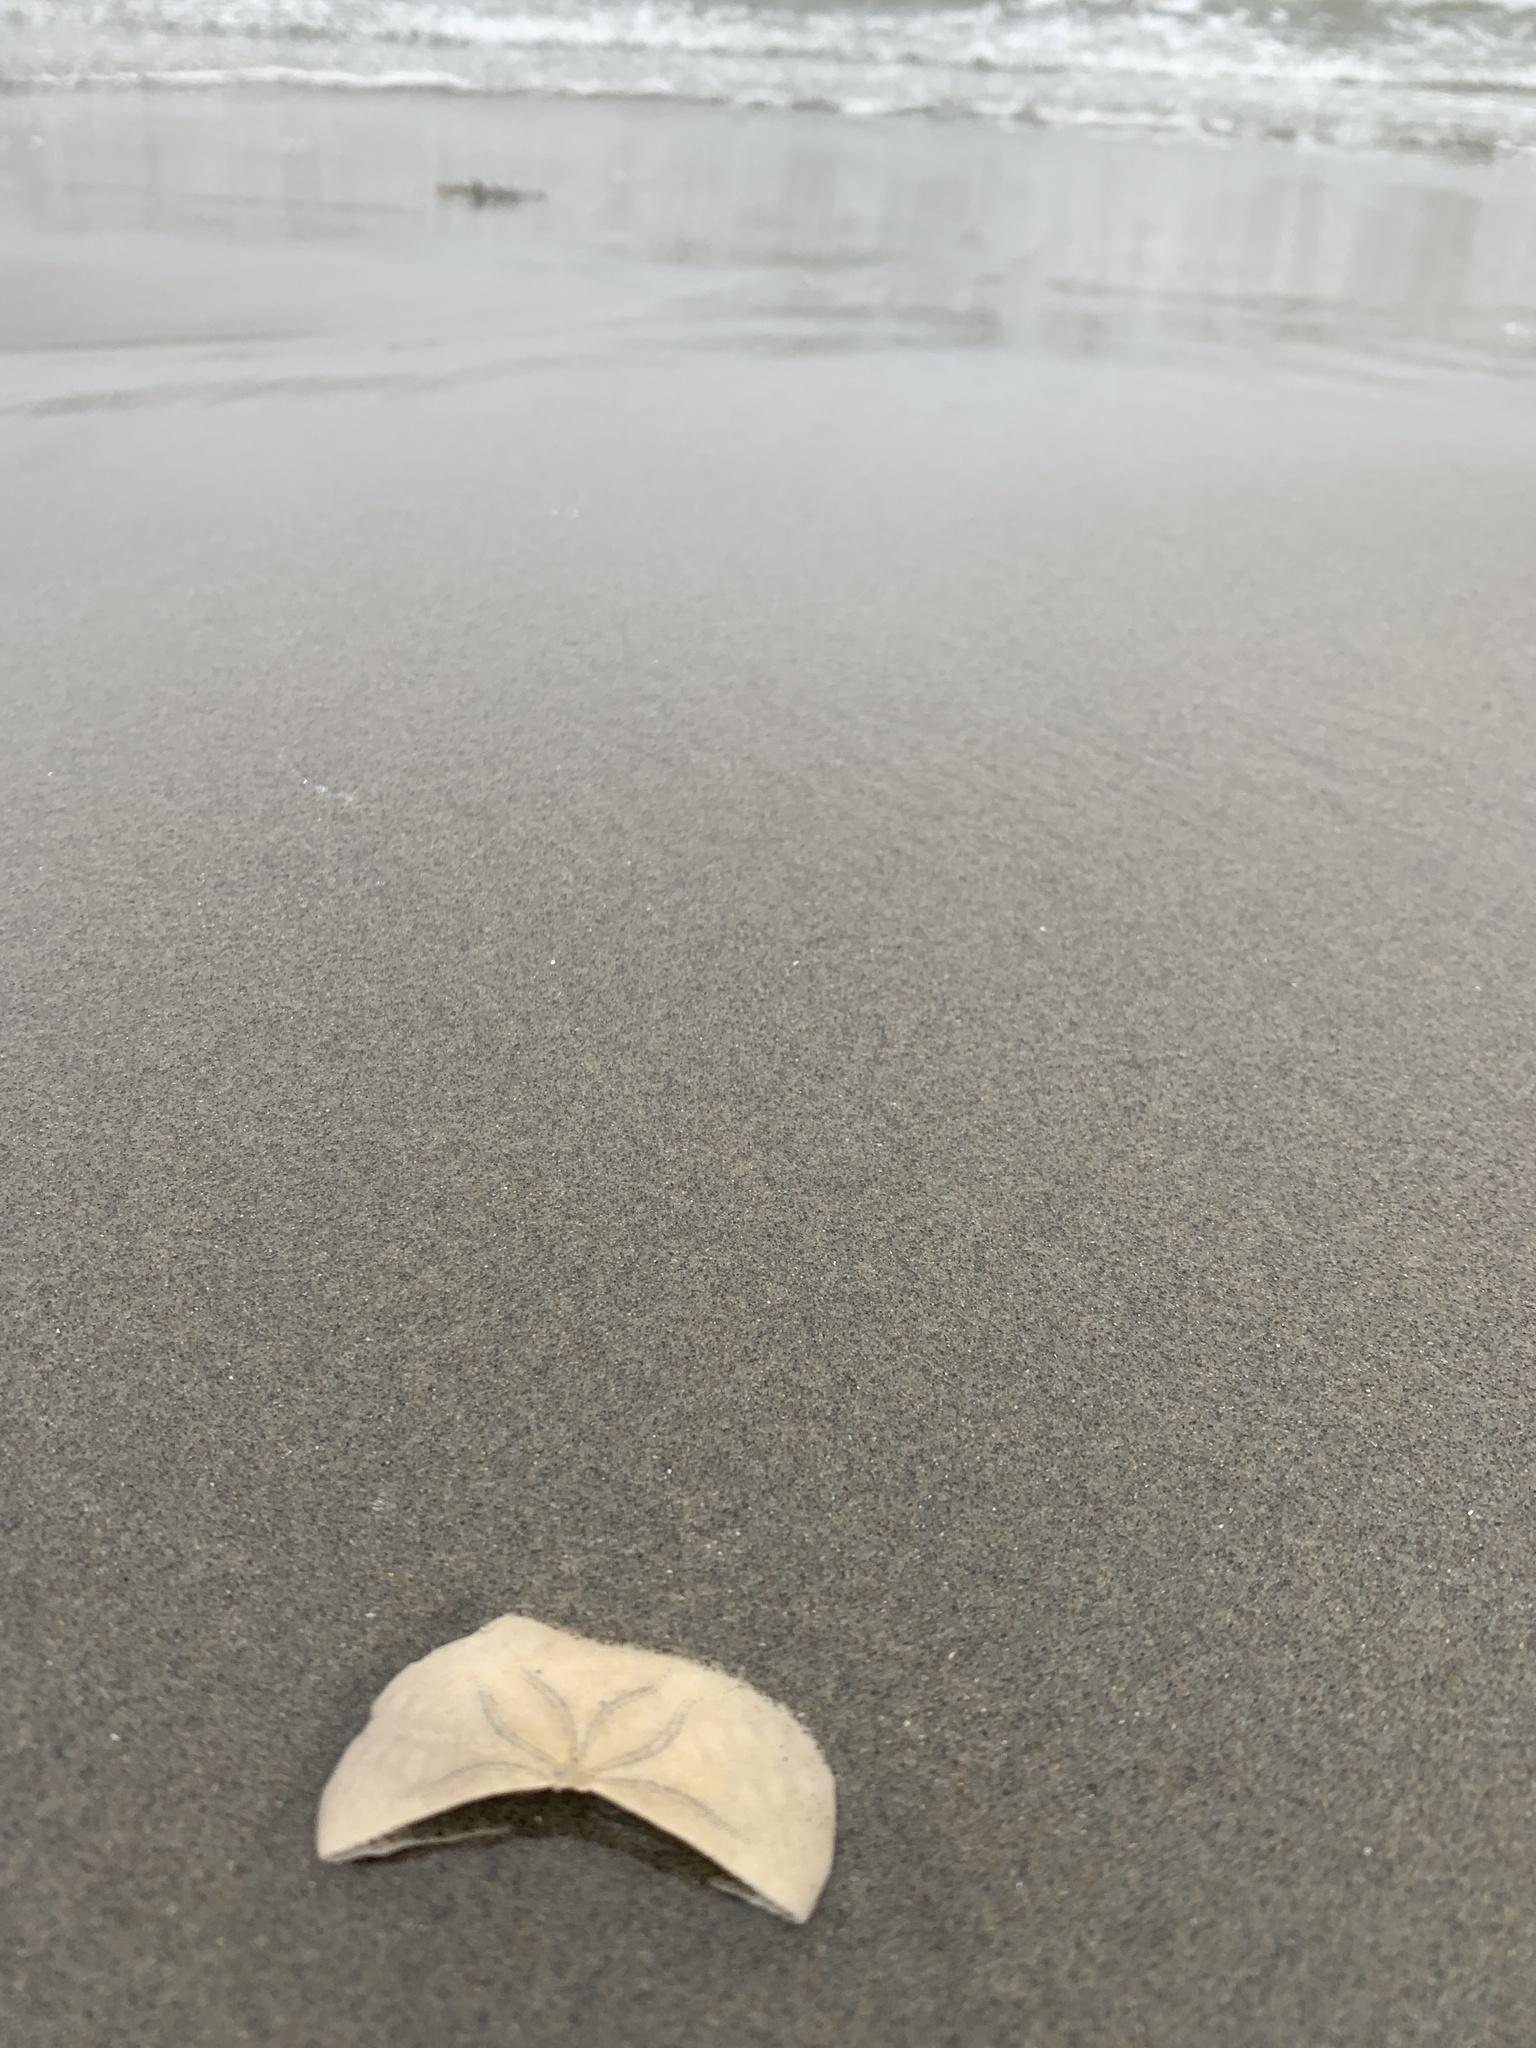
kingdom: Animalia
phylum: Echinodermata
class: Echinoidea
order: Echinolampadacea
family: Echinarachniidae
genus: Echinarachnius
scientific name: Echinarachnius parma
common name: Common sand dollar
